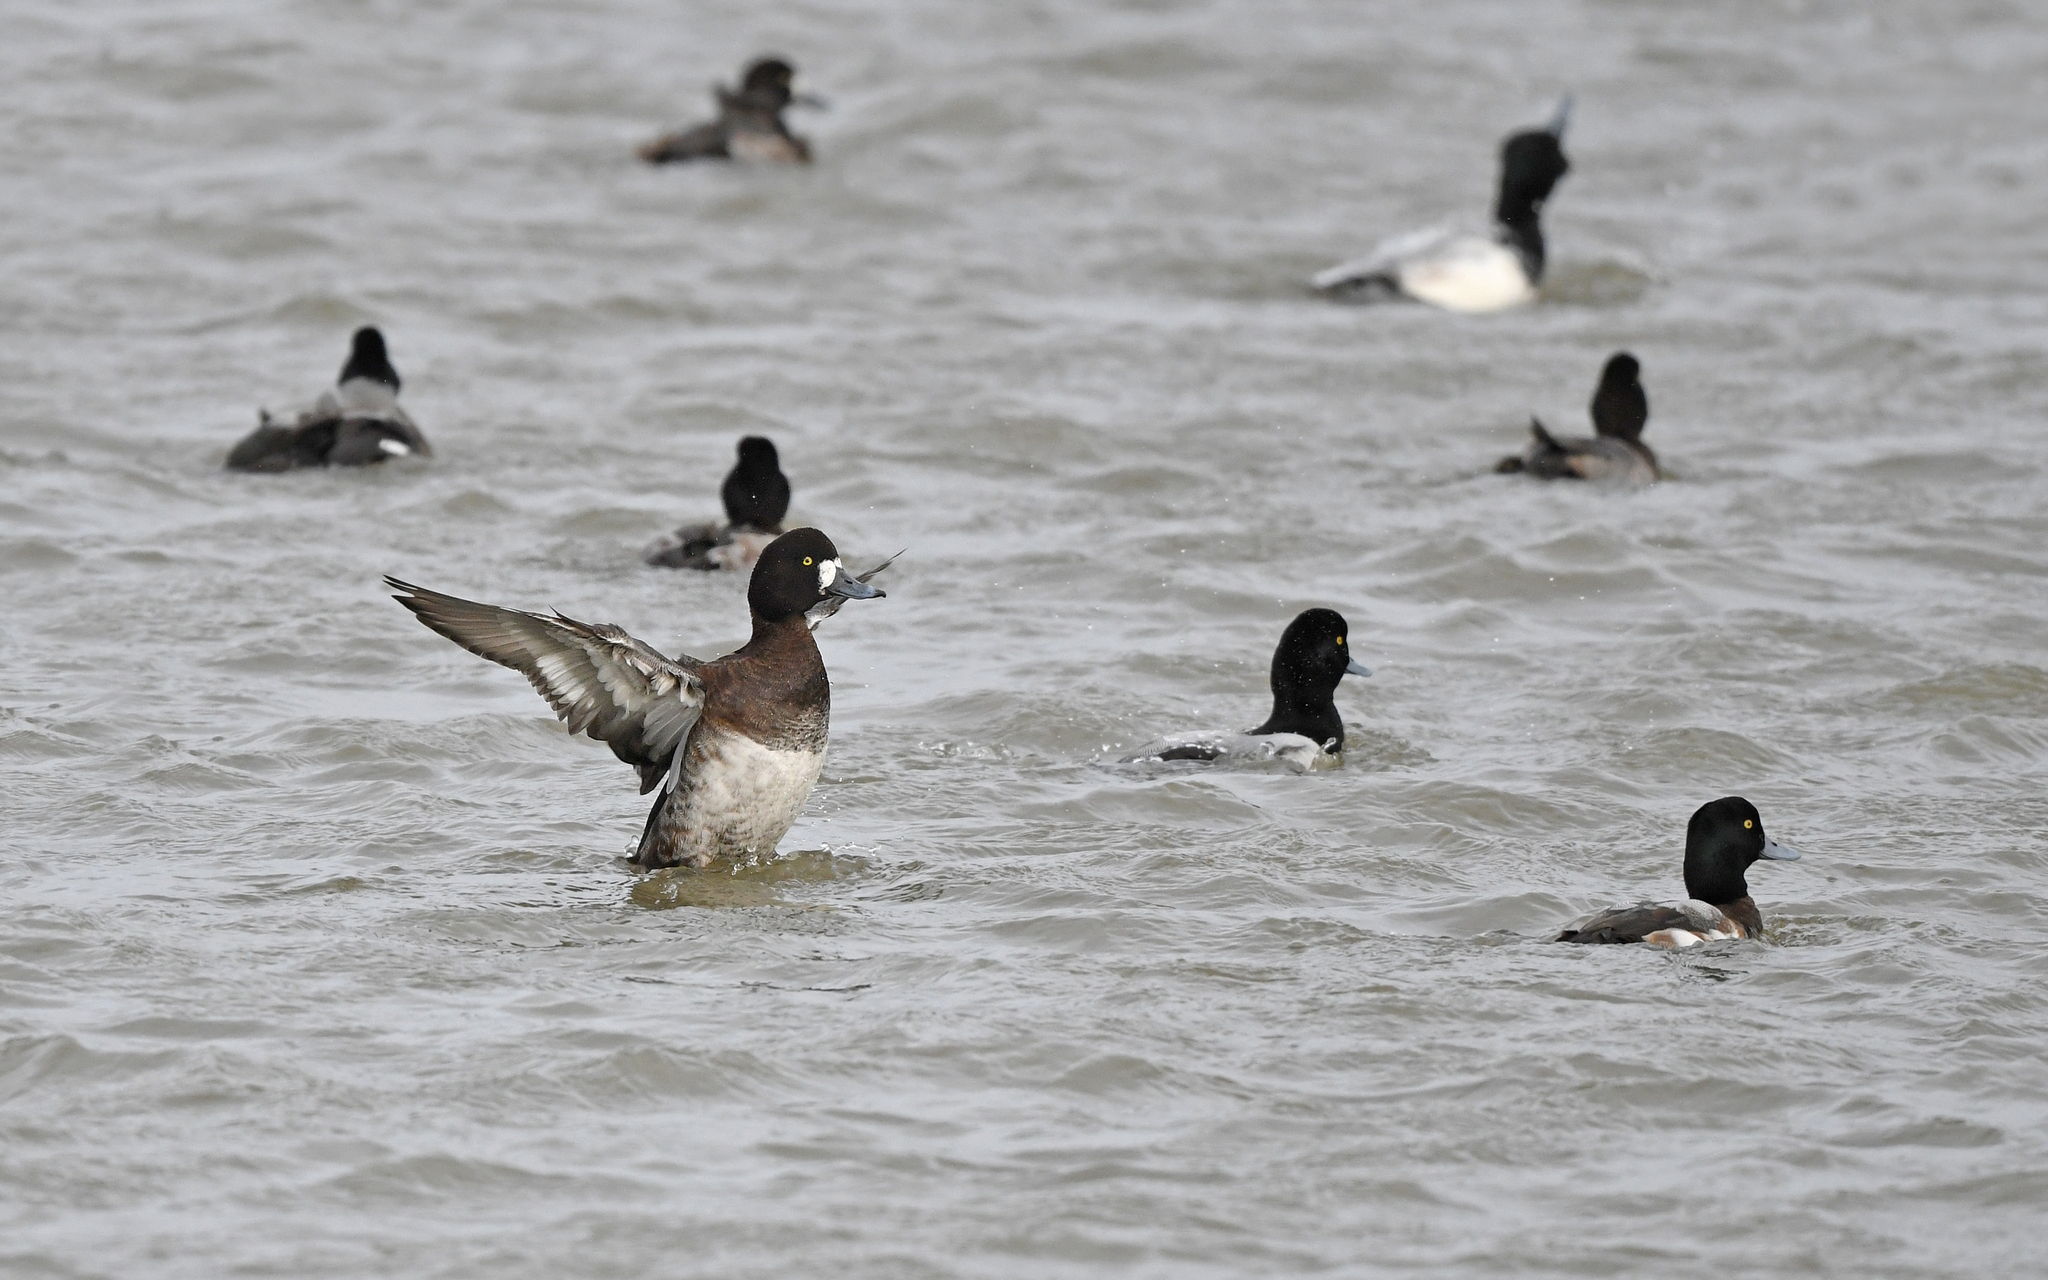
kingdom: Animalia
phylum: Chordata
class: Aves
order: Anseriformes
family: Anatidae
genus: Aythya
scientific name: Aythya marila
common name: Greater scaup
